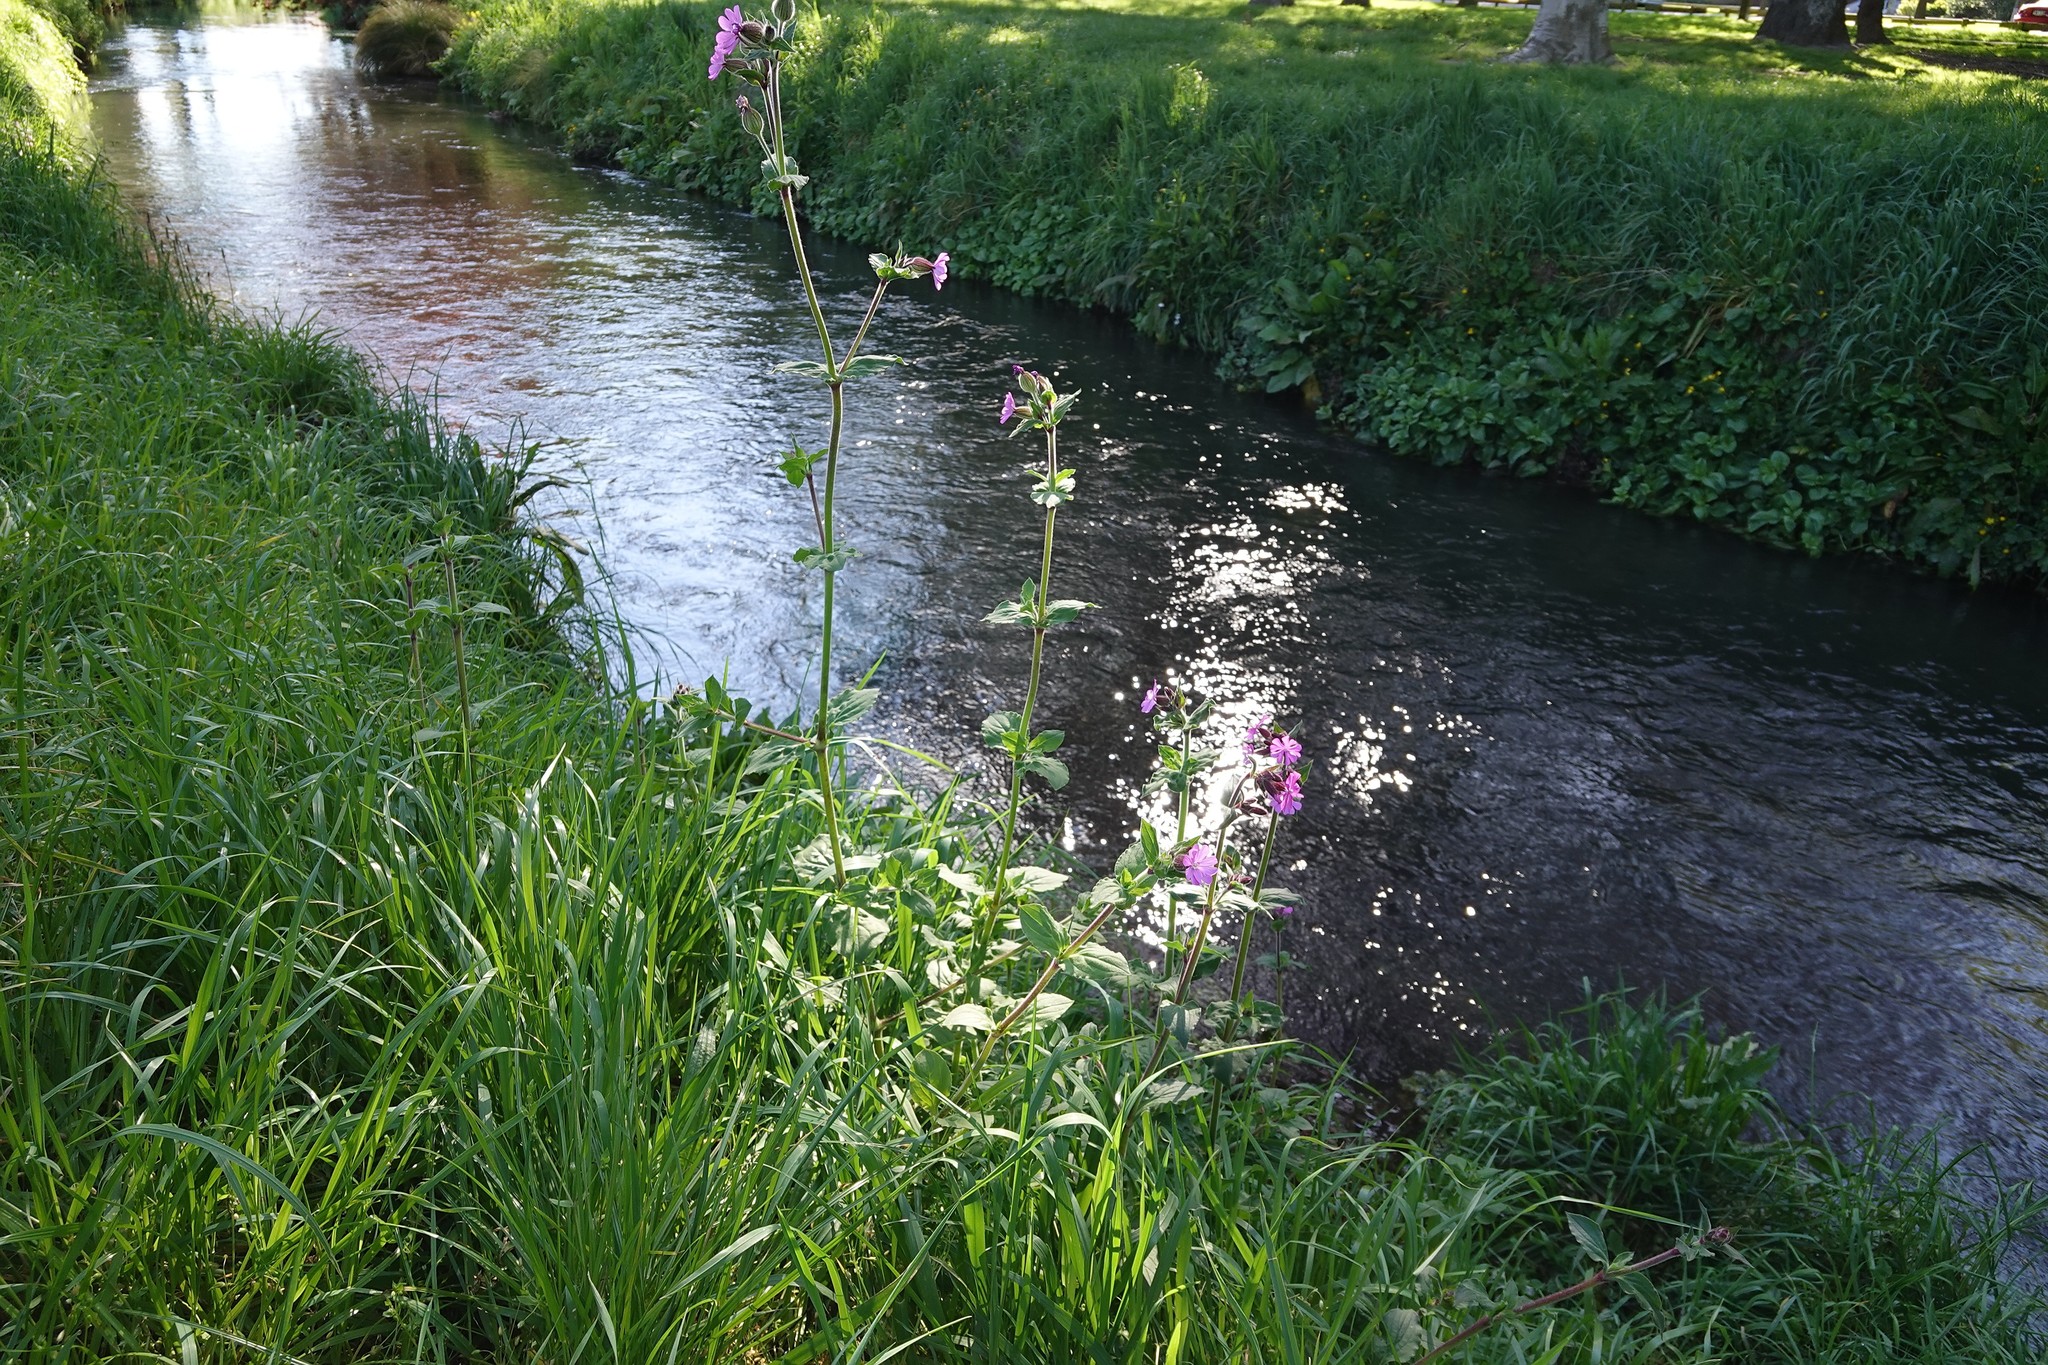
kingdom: Plantae
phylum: Tracheophyta
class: Magnoliopsida
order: Caryophyllales
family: Caryophyllaceae
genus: Silene
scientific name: Silene dioica
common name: Red campion
